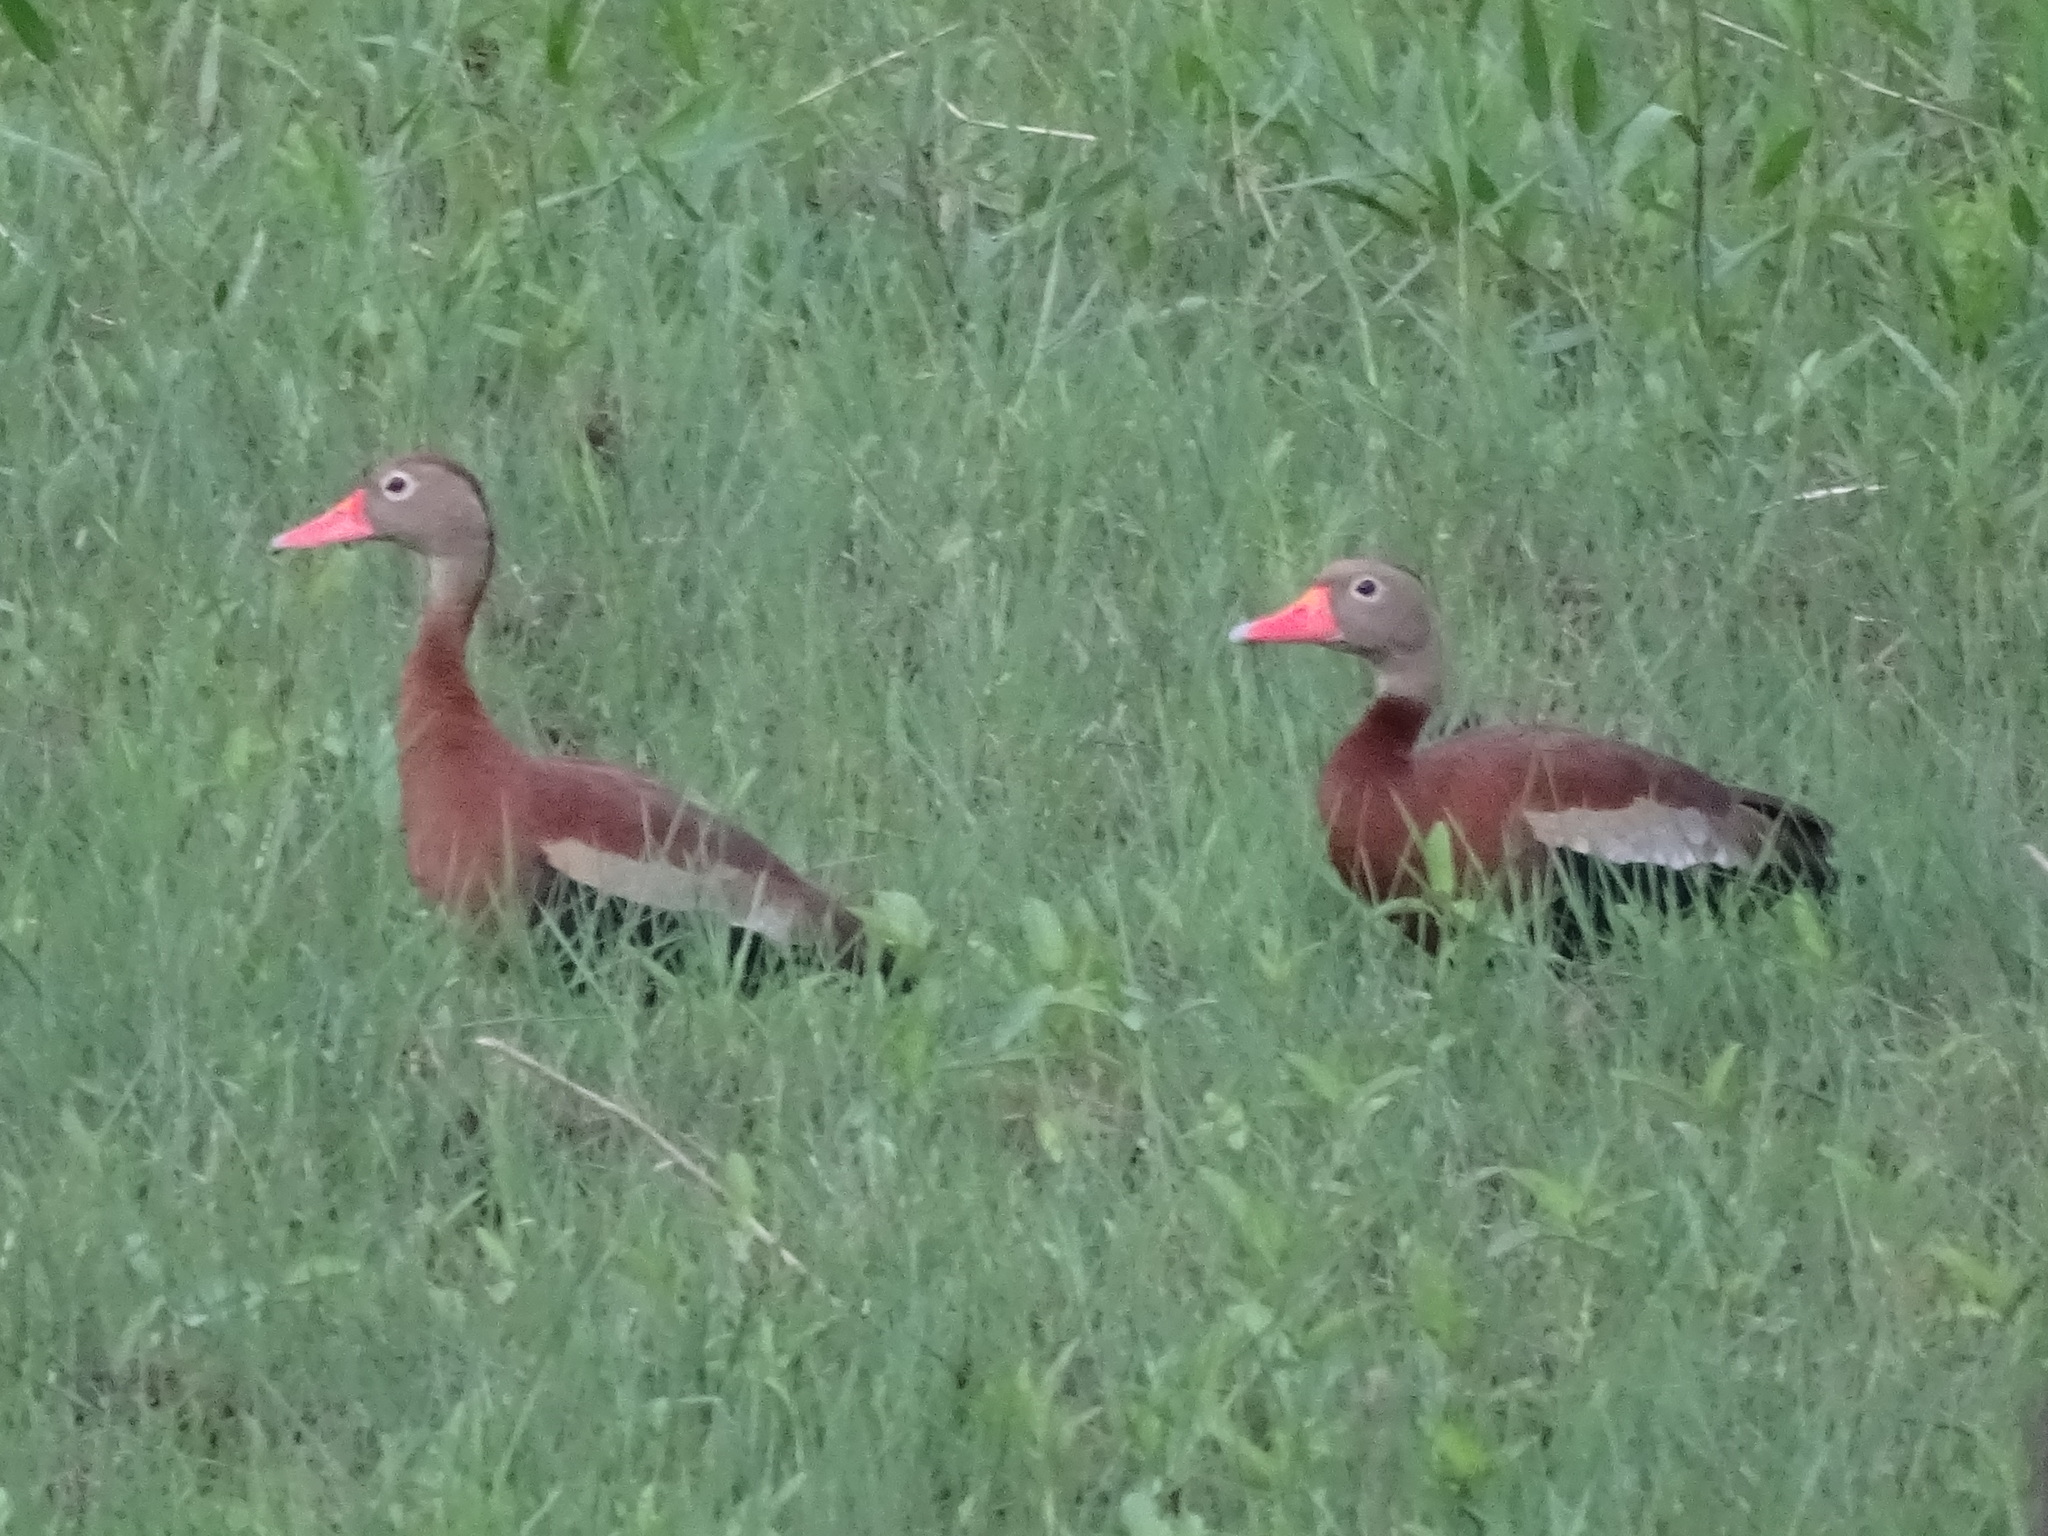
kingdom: Animalia
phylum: Chordata
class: Aves
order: Anseriformes
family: Anatidae
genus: Dendrocygna
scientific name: Dendrocygna autumnalis
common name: Black-bellied whistling duck
